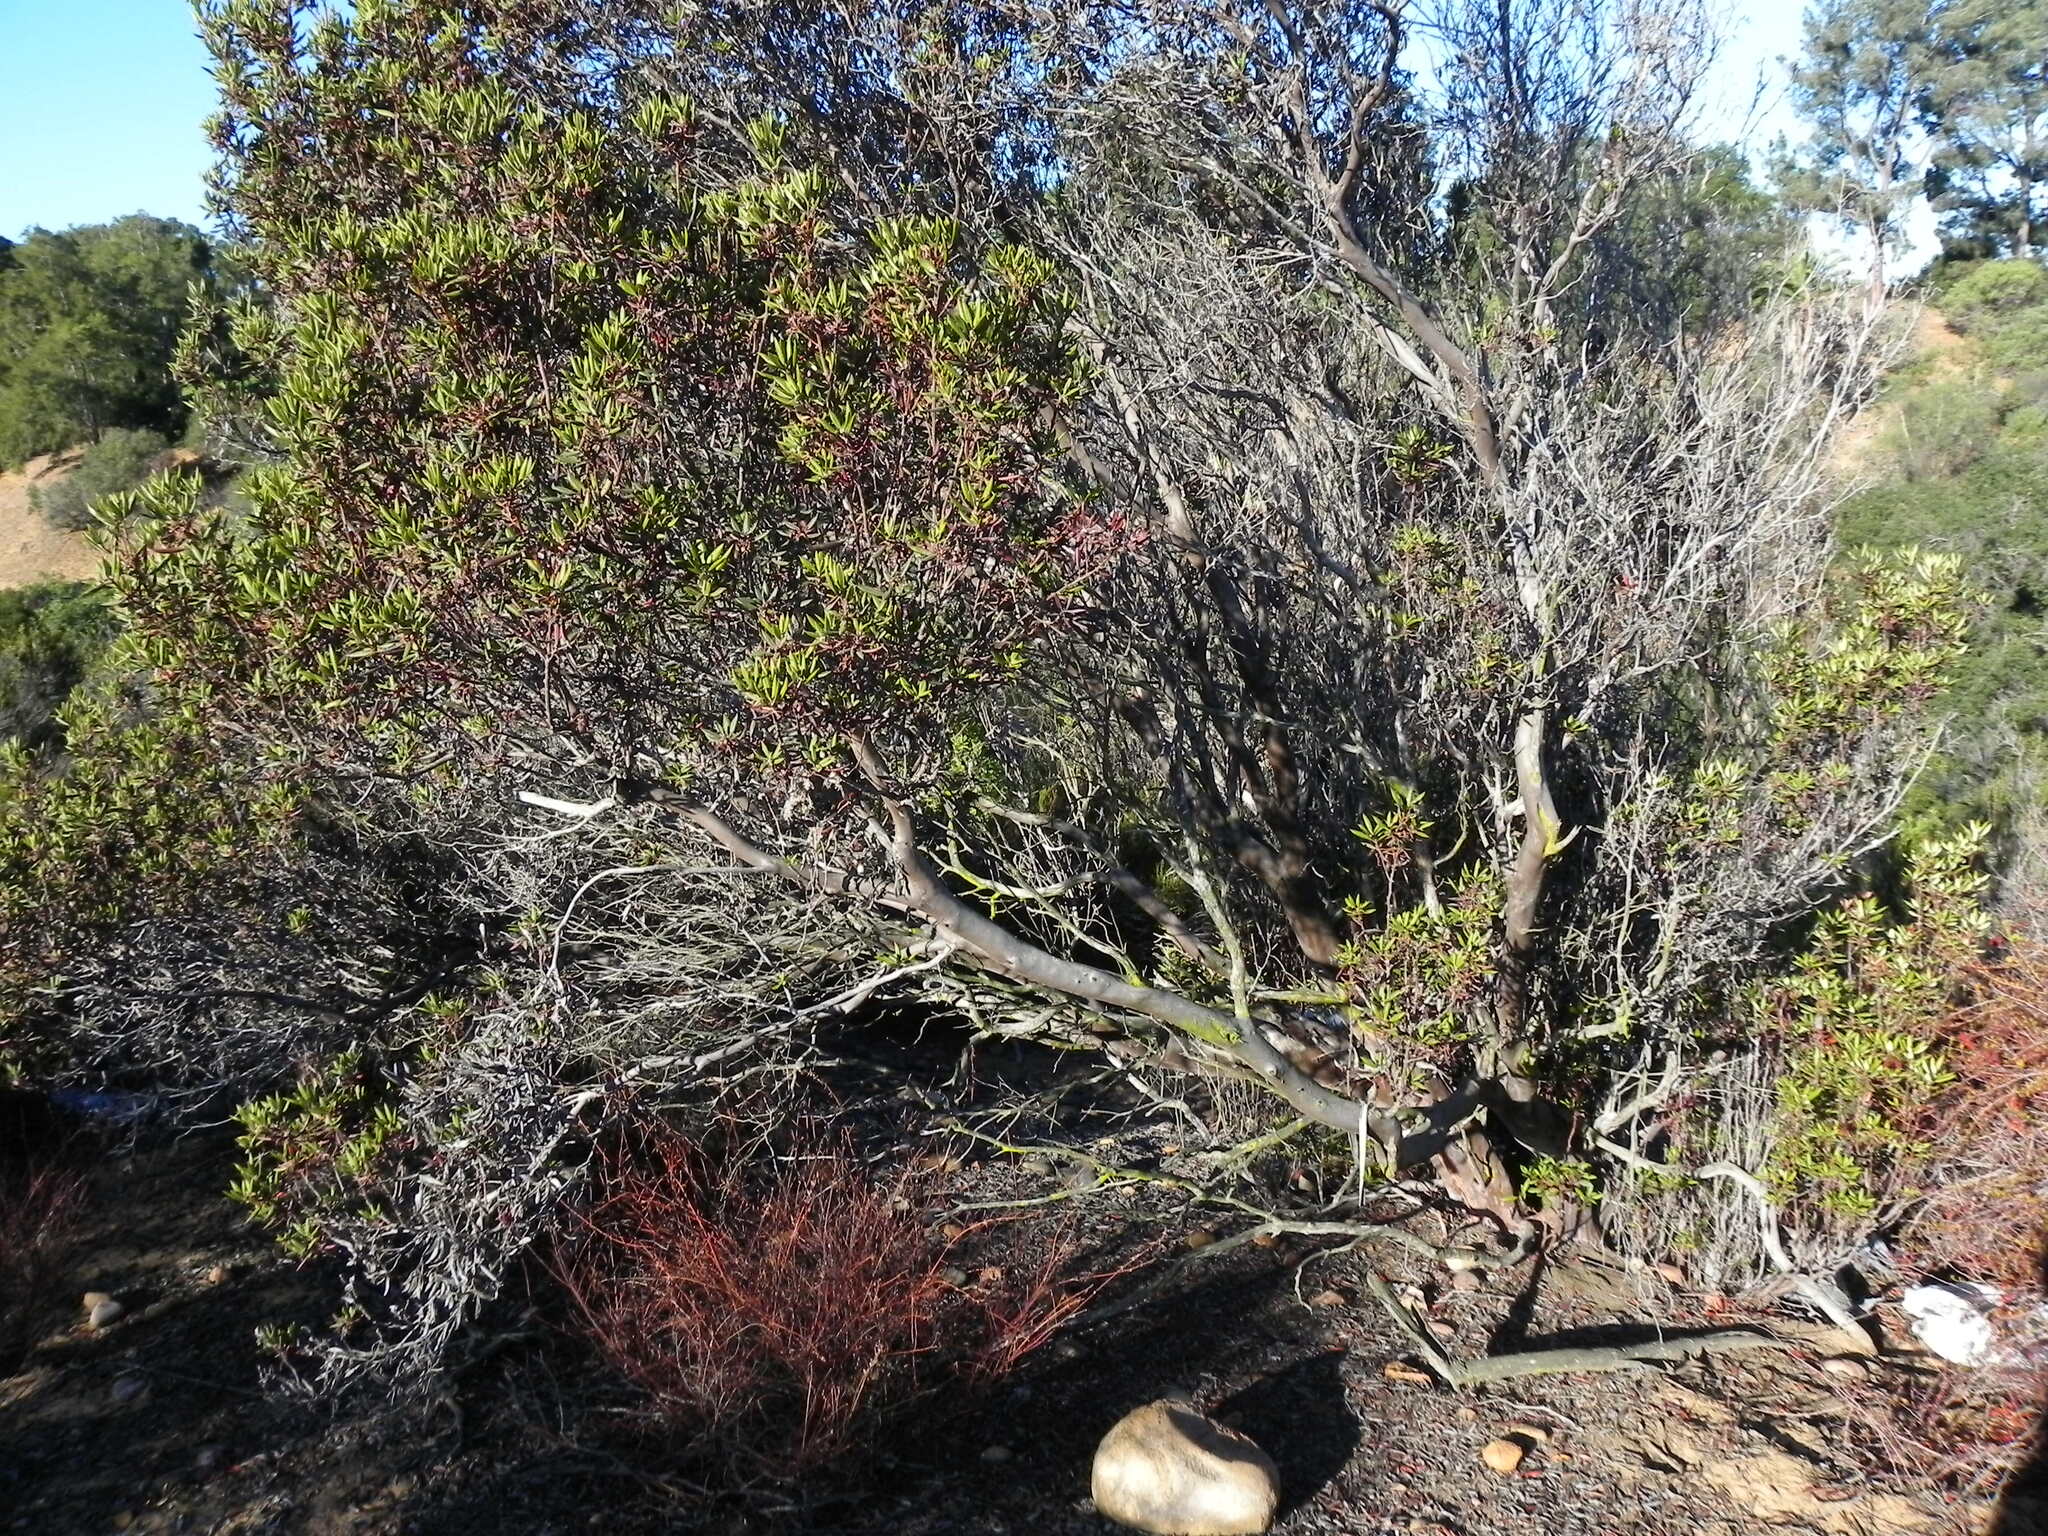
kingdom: Plantae
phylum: Tracheophyta
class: Magnoliopsida
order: Ericales
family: Ericaceae
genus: Arctostaphylos
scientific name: Arctostaphylos bicolor
